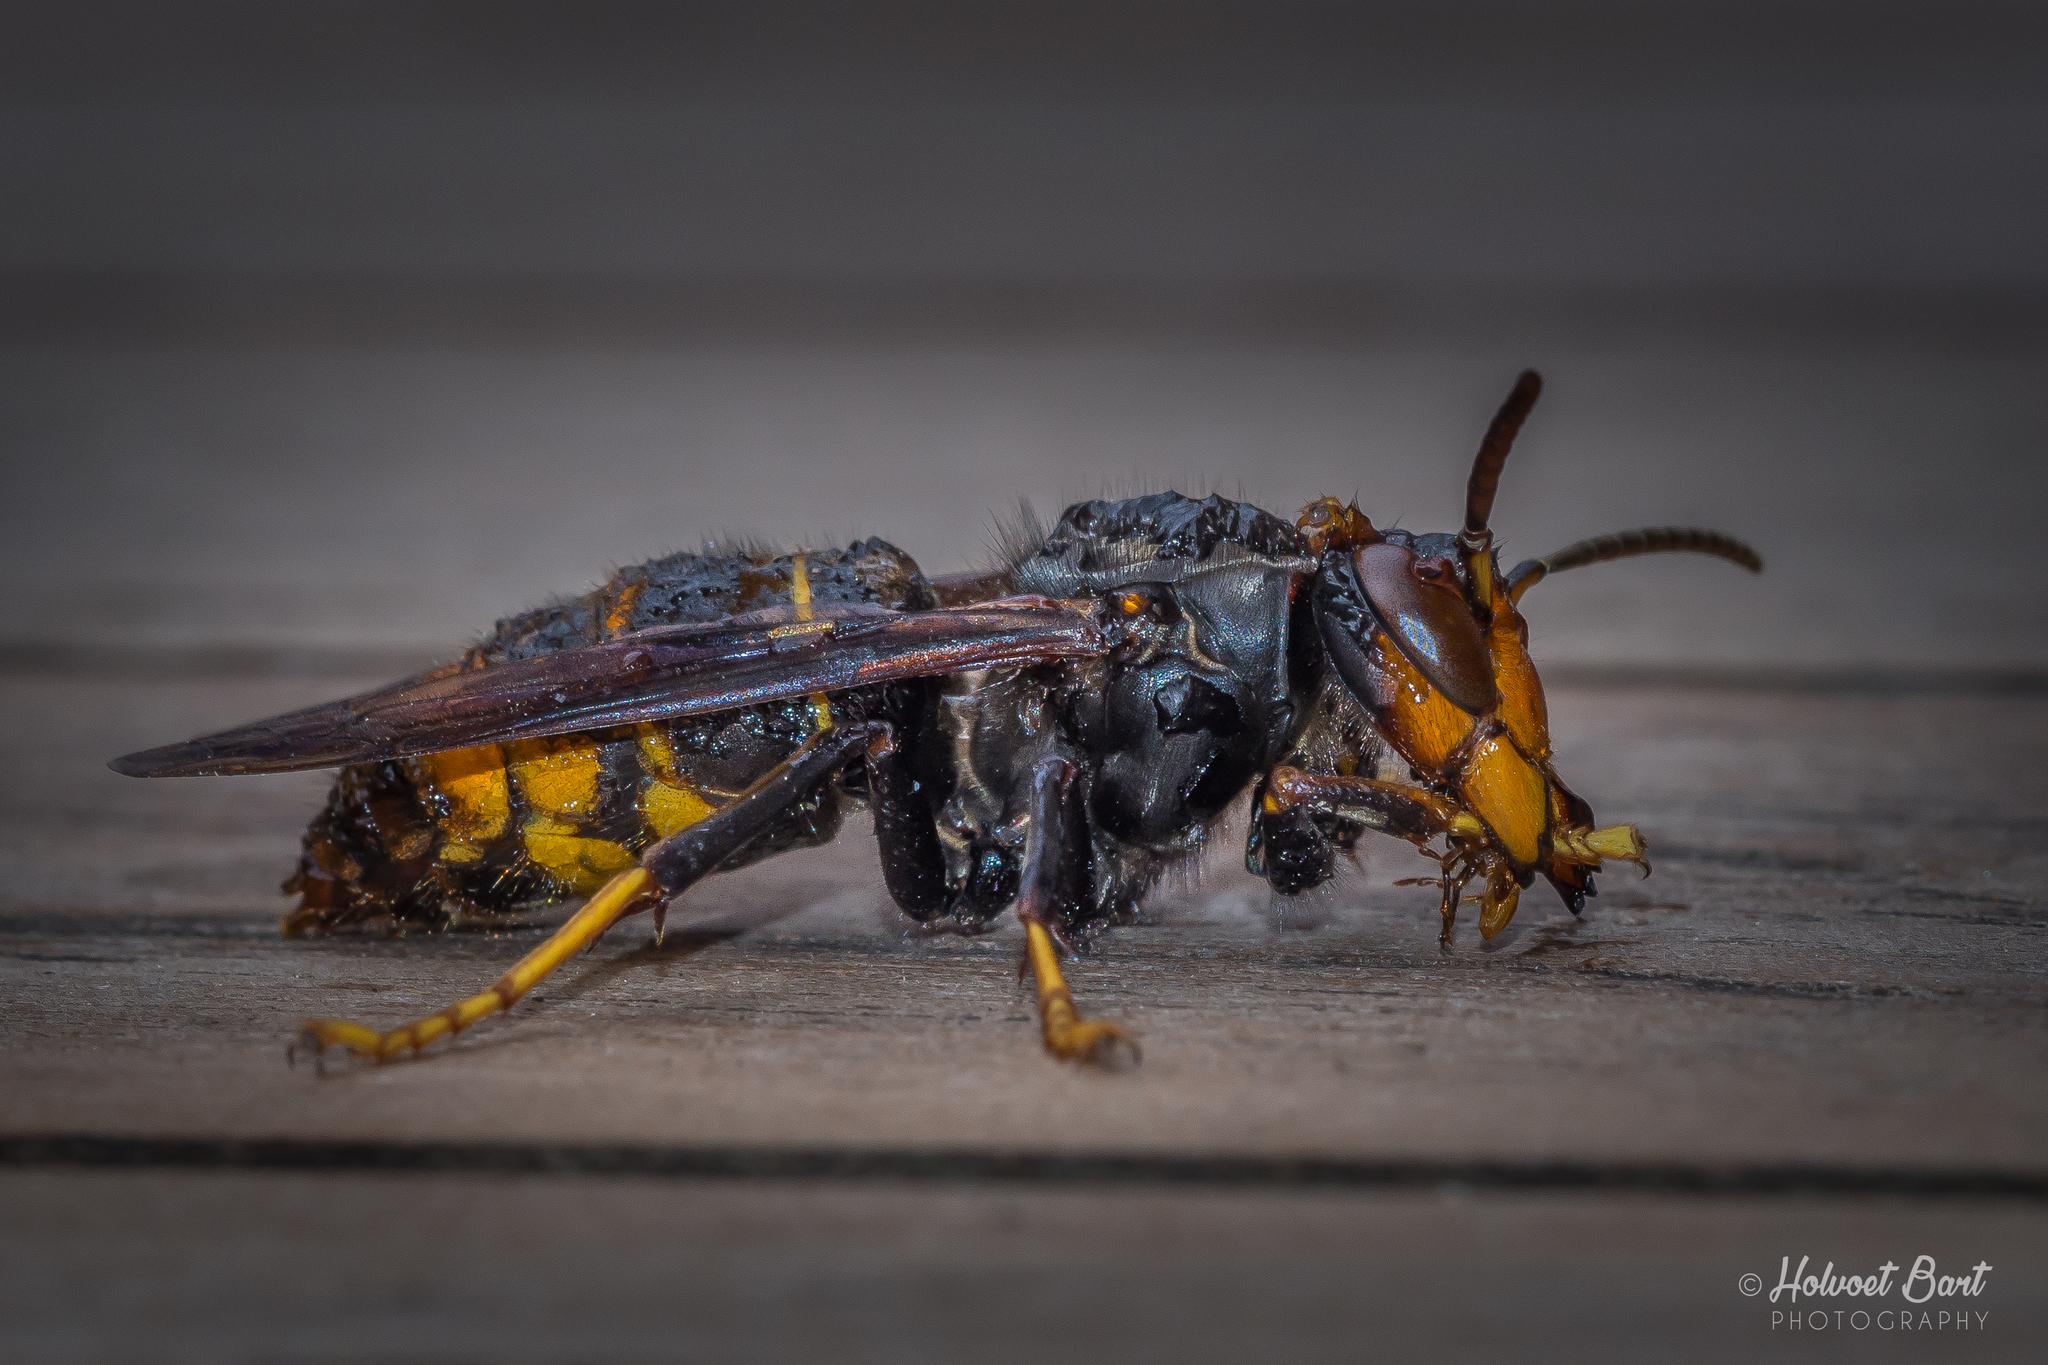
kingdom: Animalia
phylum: Arthropoda
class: Insecta
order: Hymenoptera
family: Vespidae
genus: Vespa
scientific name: Vespa velutina
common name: Asian hornet
